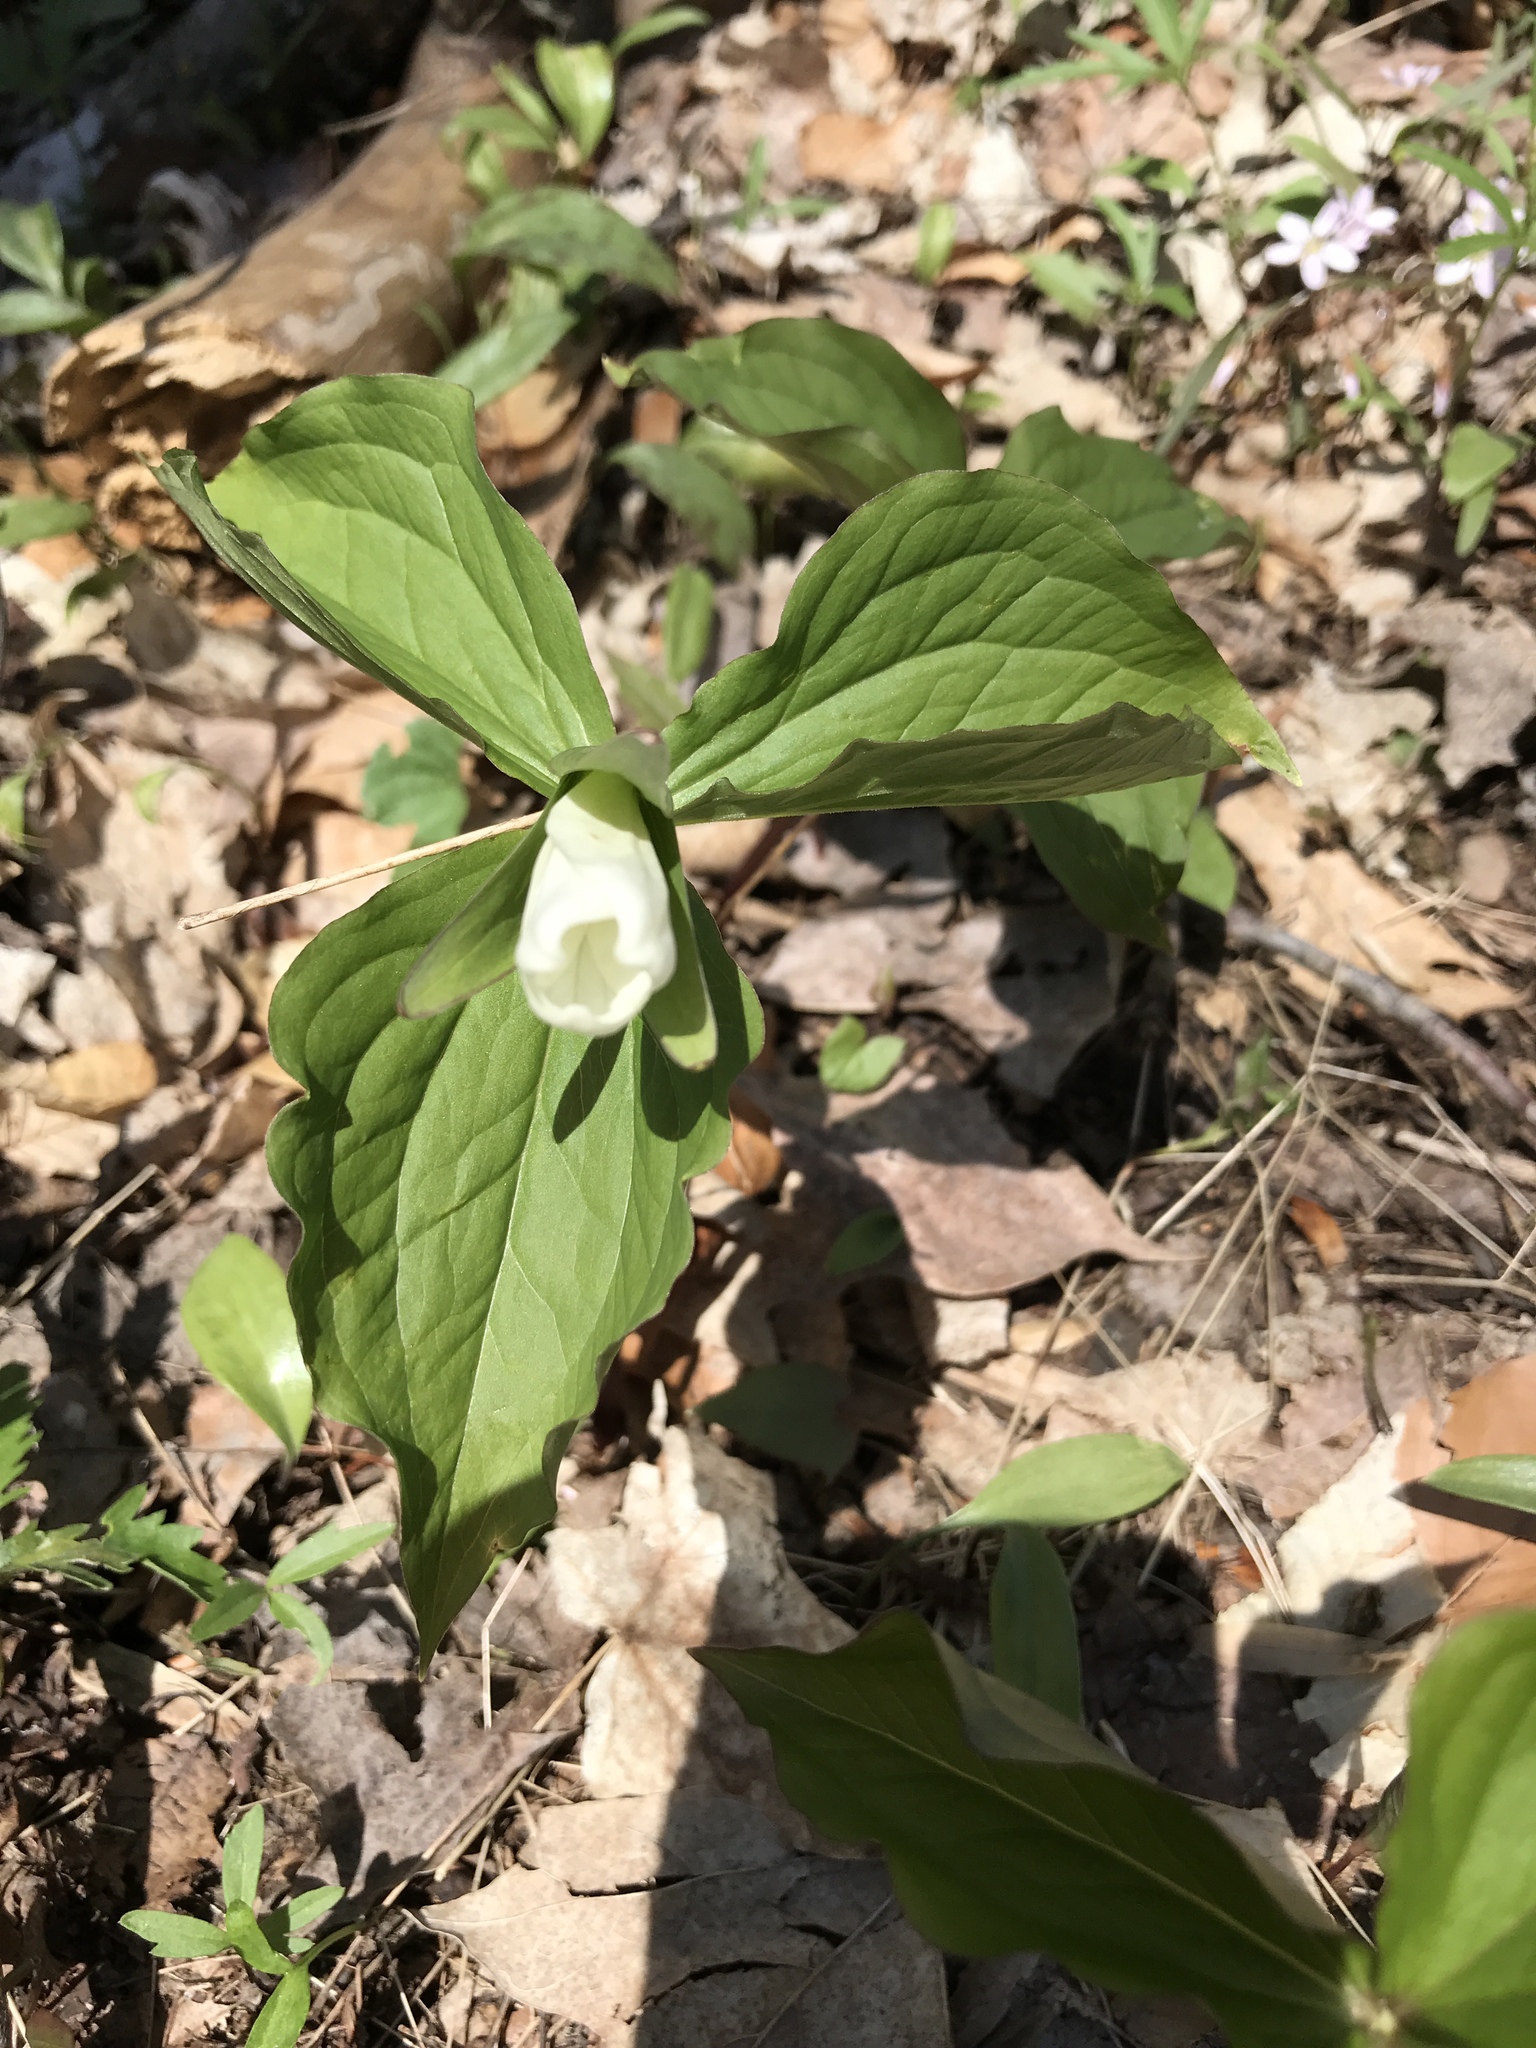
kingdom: Plantae
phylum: Tracheophyta
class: Liliopsida
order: Liliales
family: Melanthiaceae
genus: Trillium
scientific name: Trillium grandiflorum
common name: Great white trillium
